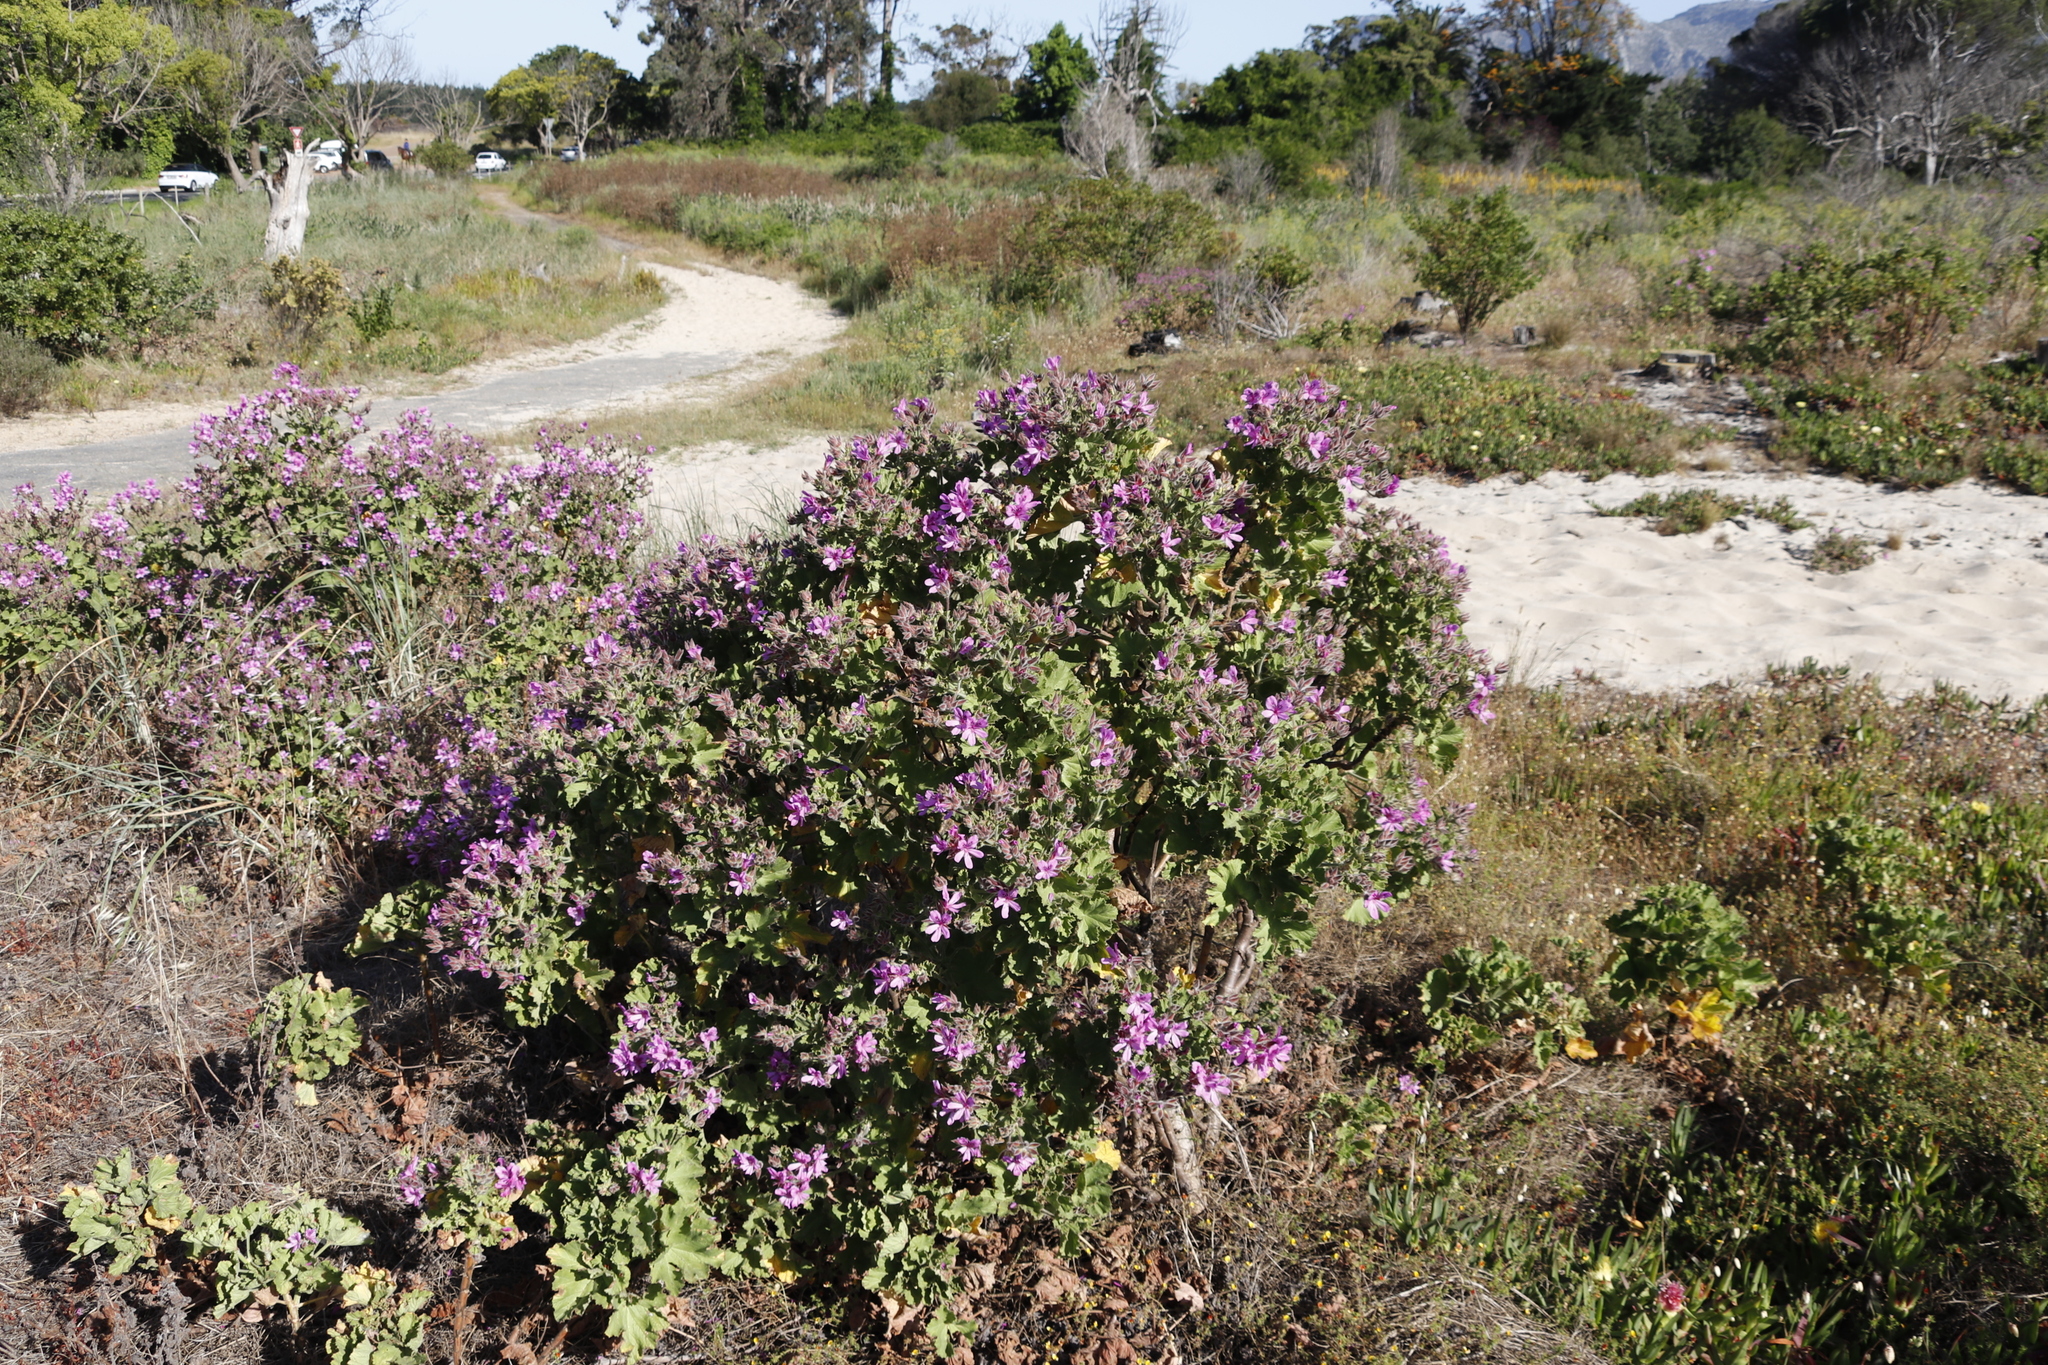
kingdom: Plantae
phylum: Tracheophyta
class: Magnoliopsida
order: Geraniales
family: Geraniaceae
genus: Pelargonium
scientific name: Pelargonium cucullatum
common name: Tree pelargonium
